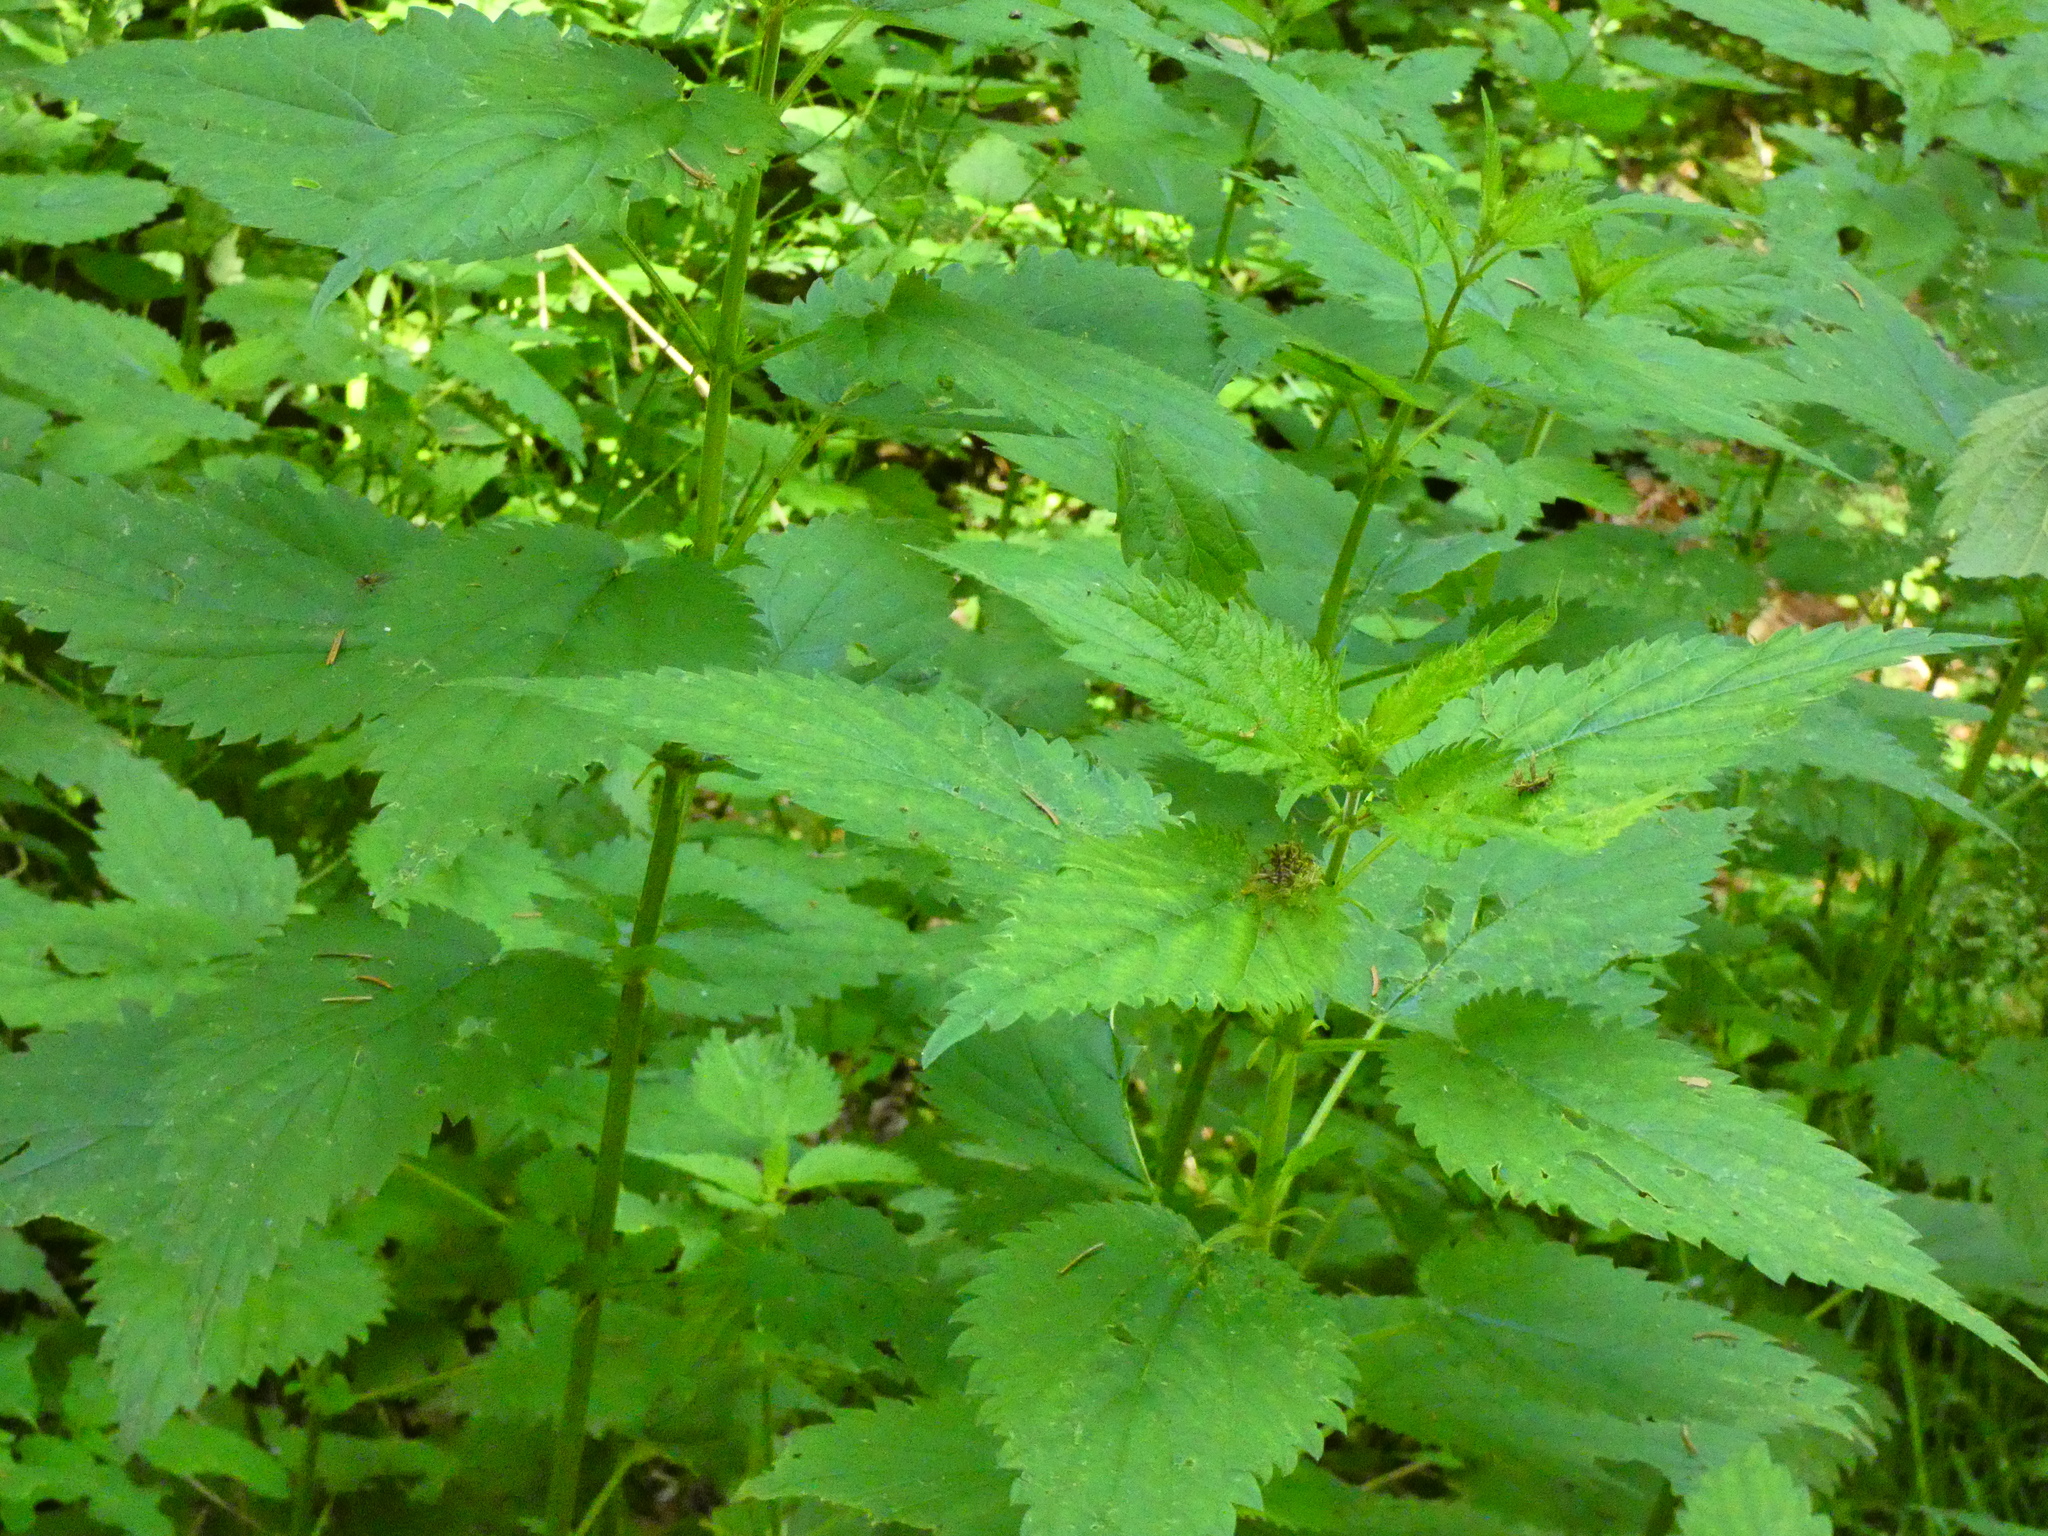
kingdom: Plantae
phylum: Tracheophyta
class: Magnoliopsida
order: Rosales
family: Urticaceae
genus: Urtica
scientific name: Urtica dioica
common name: Common nettle
